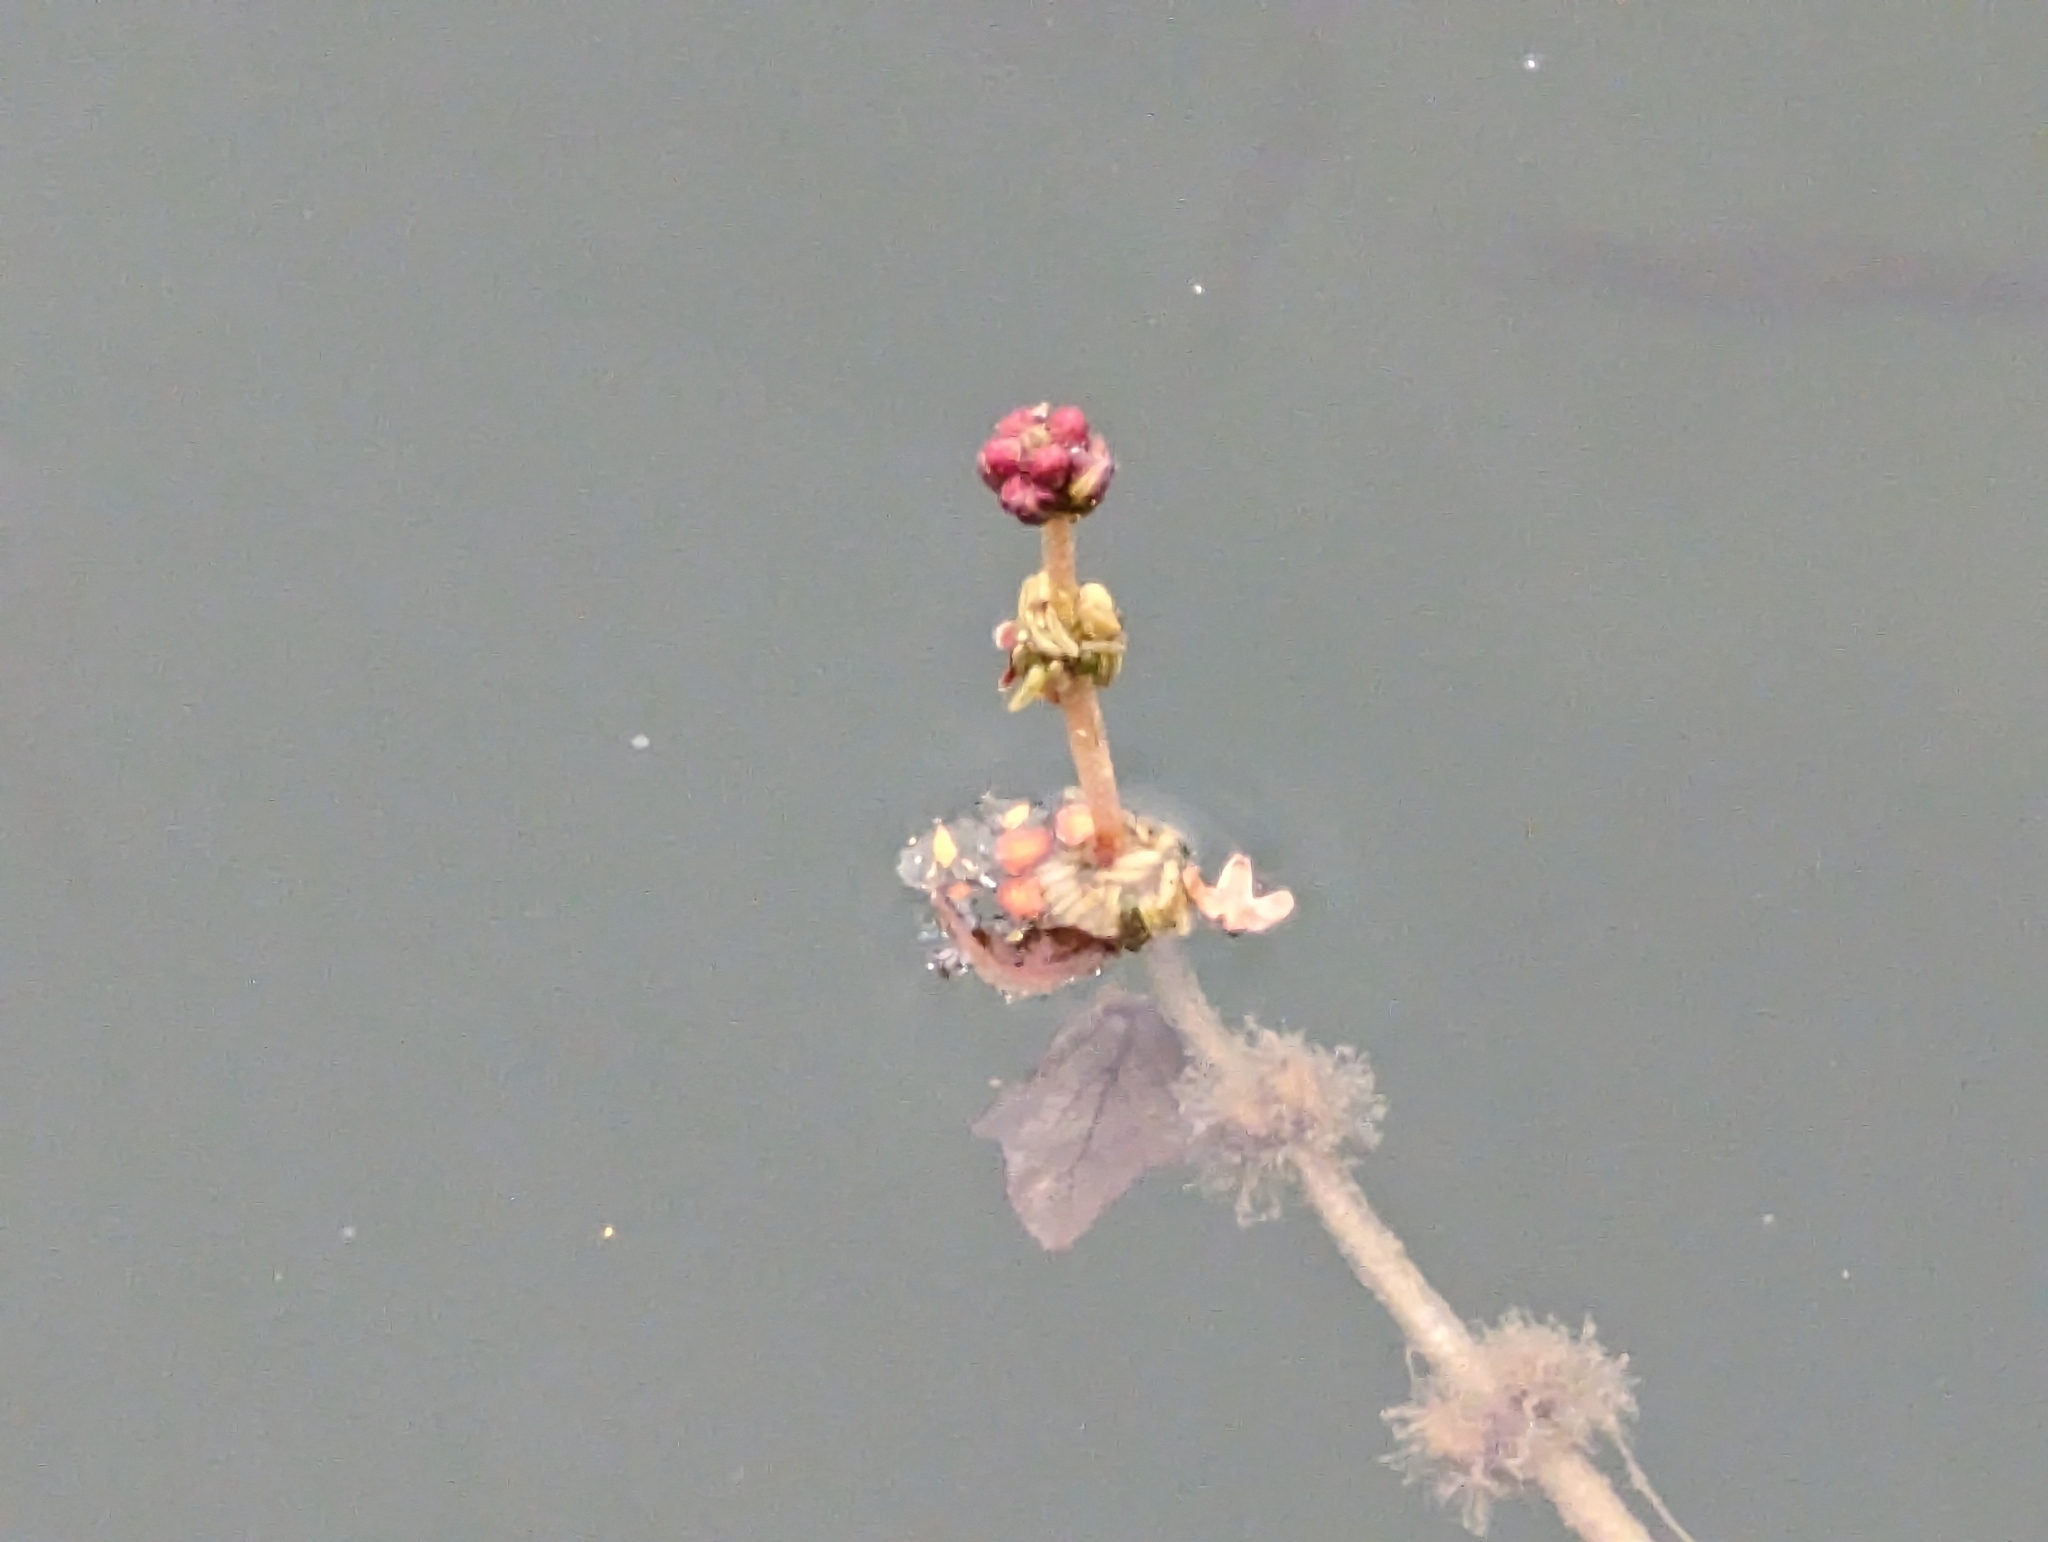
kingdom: Plantae
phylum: Tracheophyta
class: Magnoliopsida
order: Saxifragales
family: Haloragaceae
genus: Myriophyllum
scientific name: Myriophyllum spicatum
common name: Spiked water-milfoil
